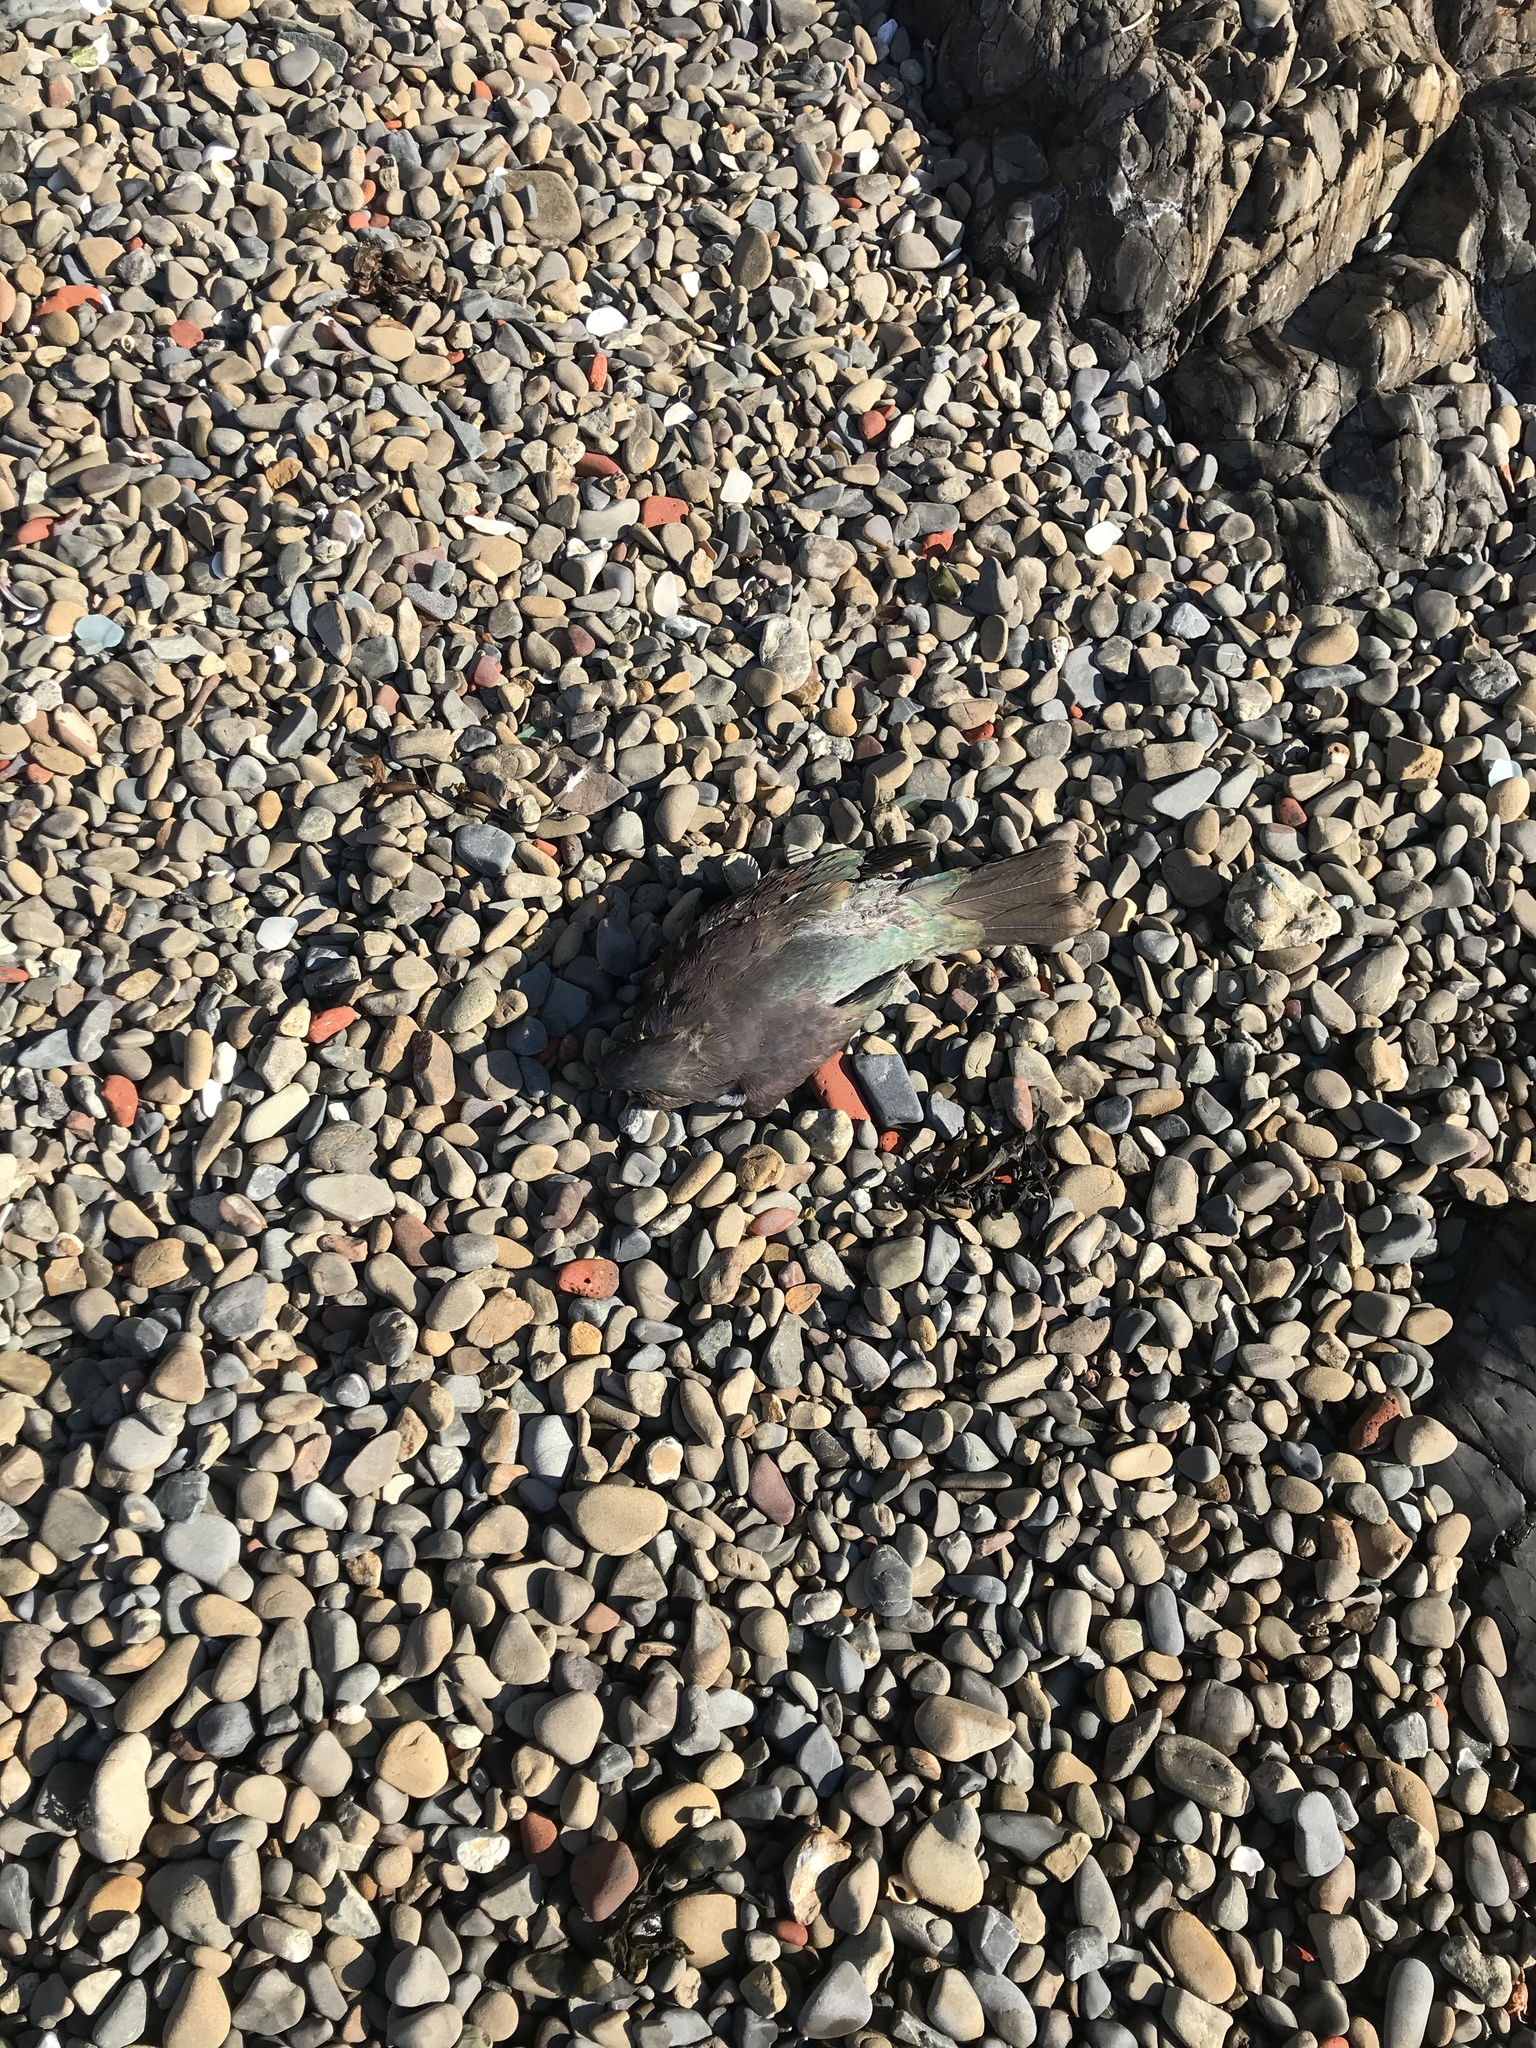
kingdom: Animalia
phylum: Chordata
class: Aves
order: Columbiformes
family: Columbidae
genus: Hemiphaga
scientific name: Hemiphaga novaeseelandiae
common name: New zealand pigeon
